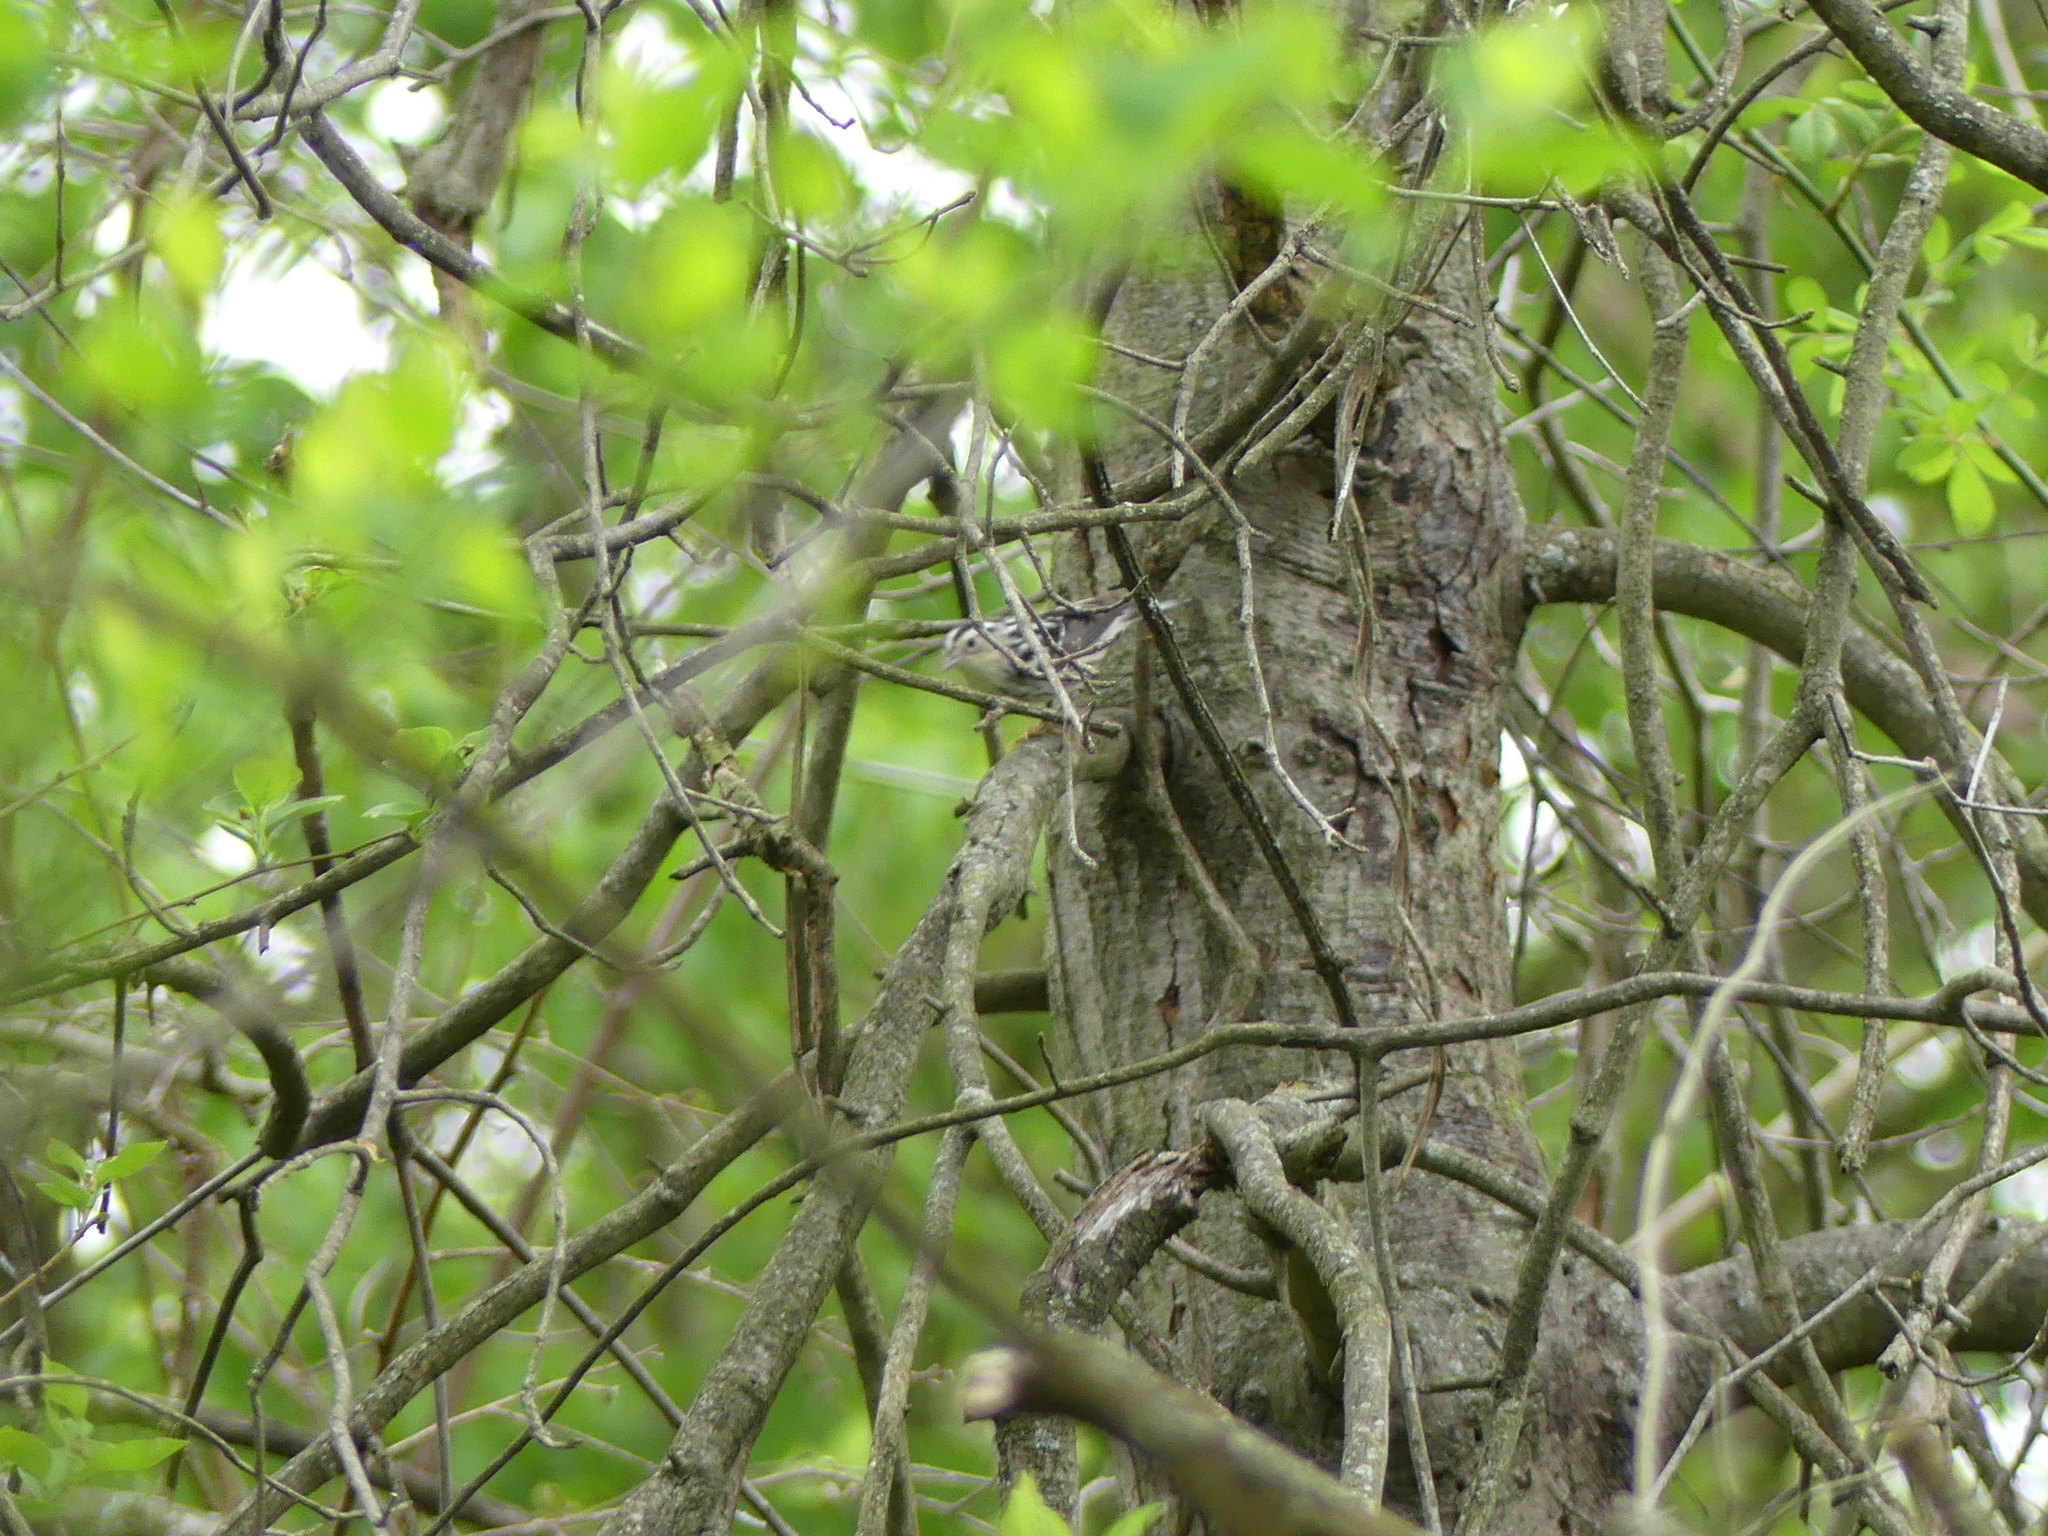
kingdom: Animalia
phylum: Chordata
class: Aves
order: Passeriformes
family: Parulidae
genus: Mniotilta
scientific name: Mniotilta varia
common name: Black-and-white warbler
